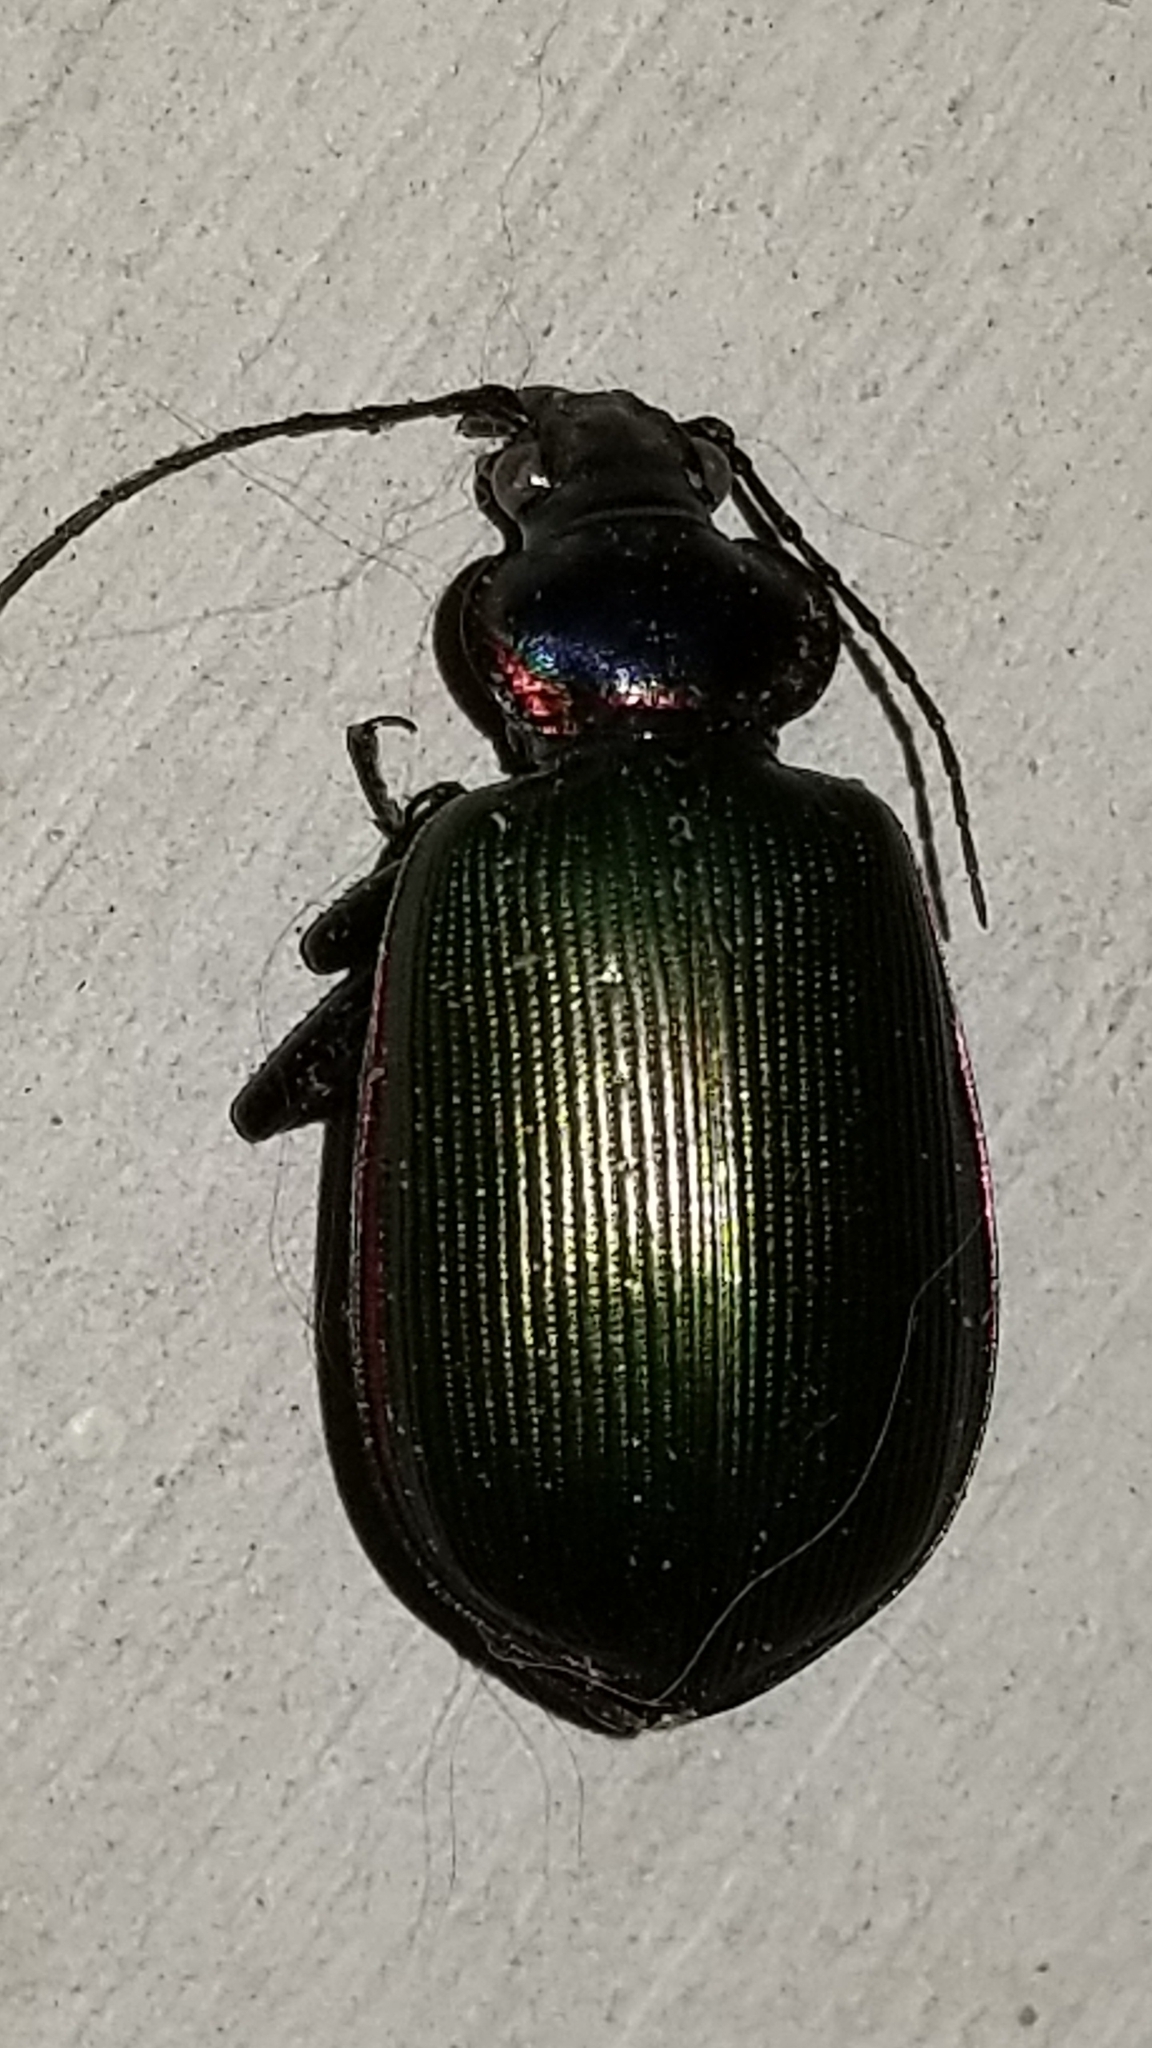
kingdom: Animalia
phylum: Arthropoda
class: Insecta
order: Coleoptera
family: Carabidae
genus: Calosoma
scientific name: Calosoma scrutator
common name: Fiery searcher beetle
